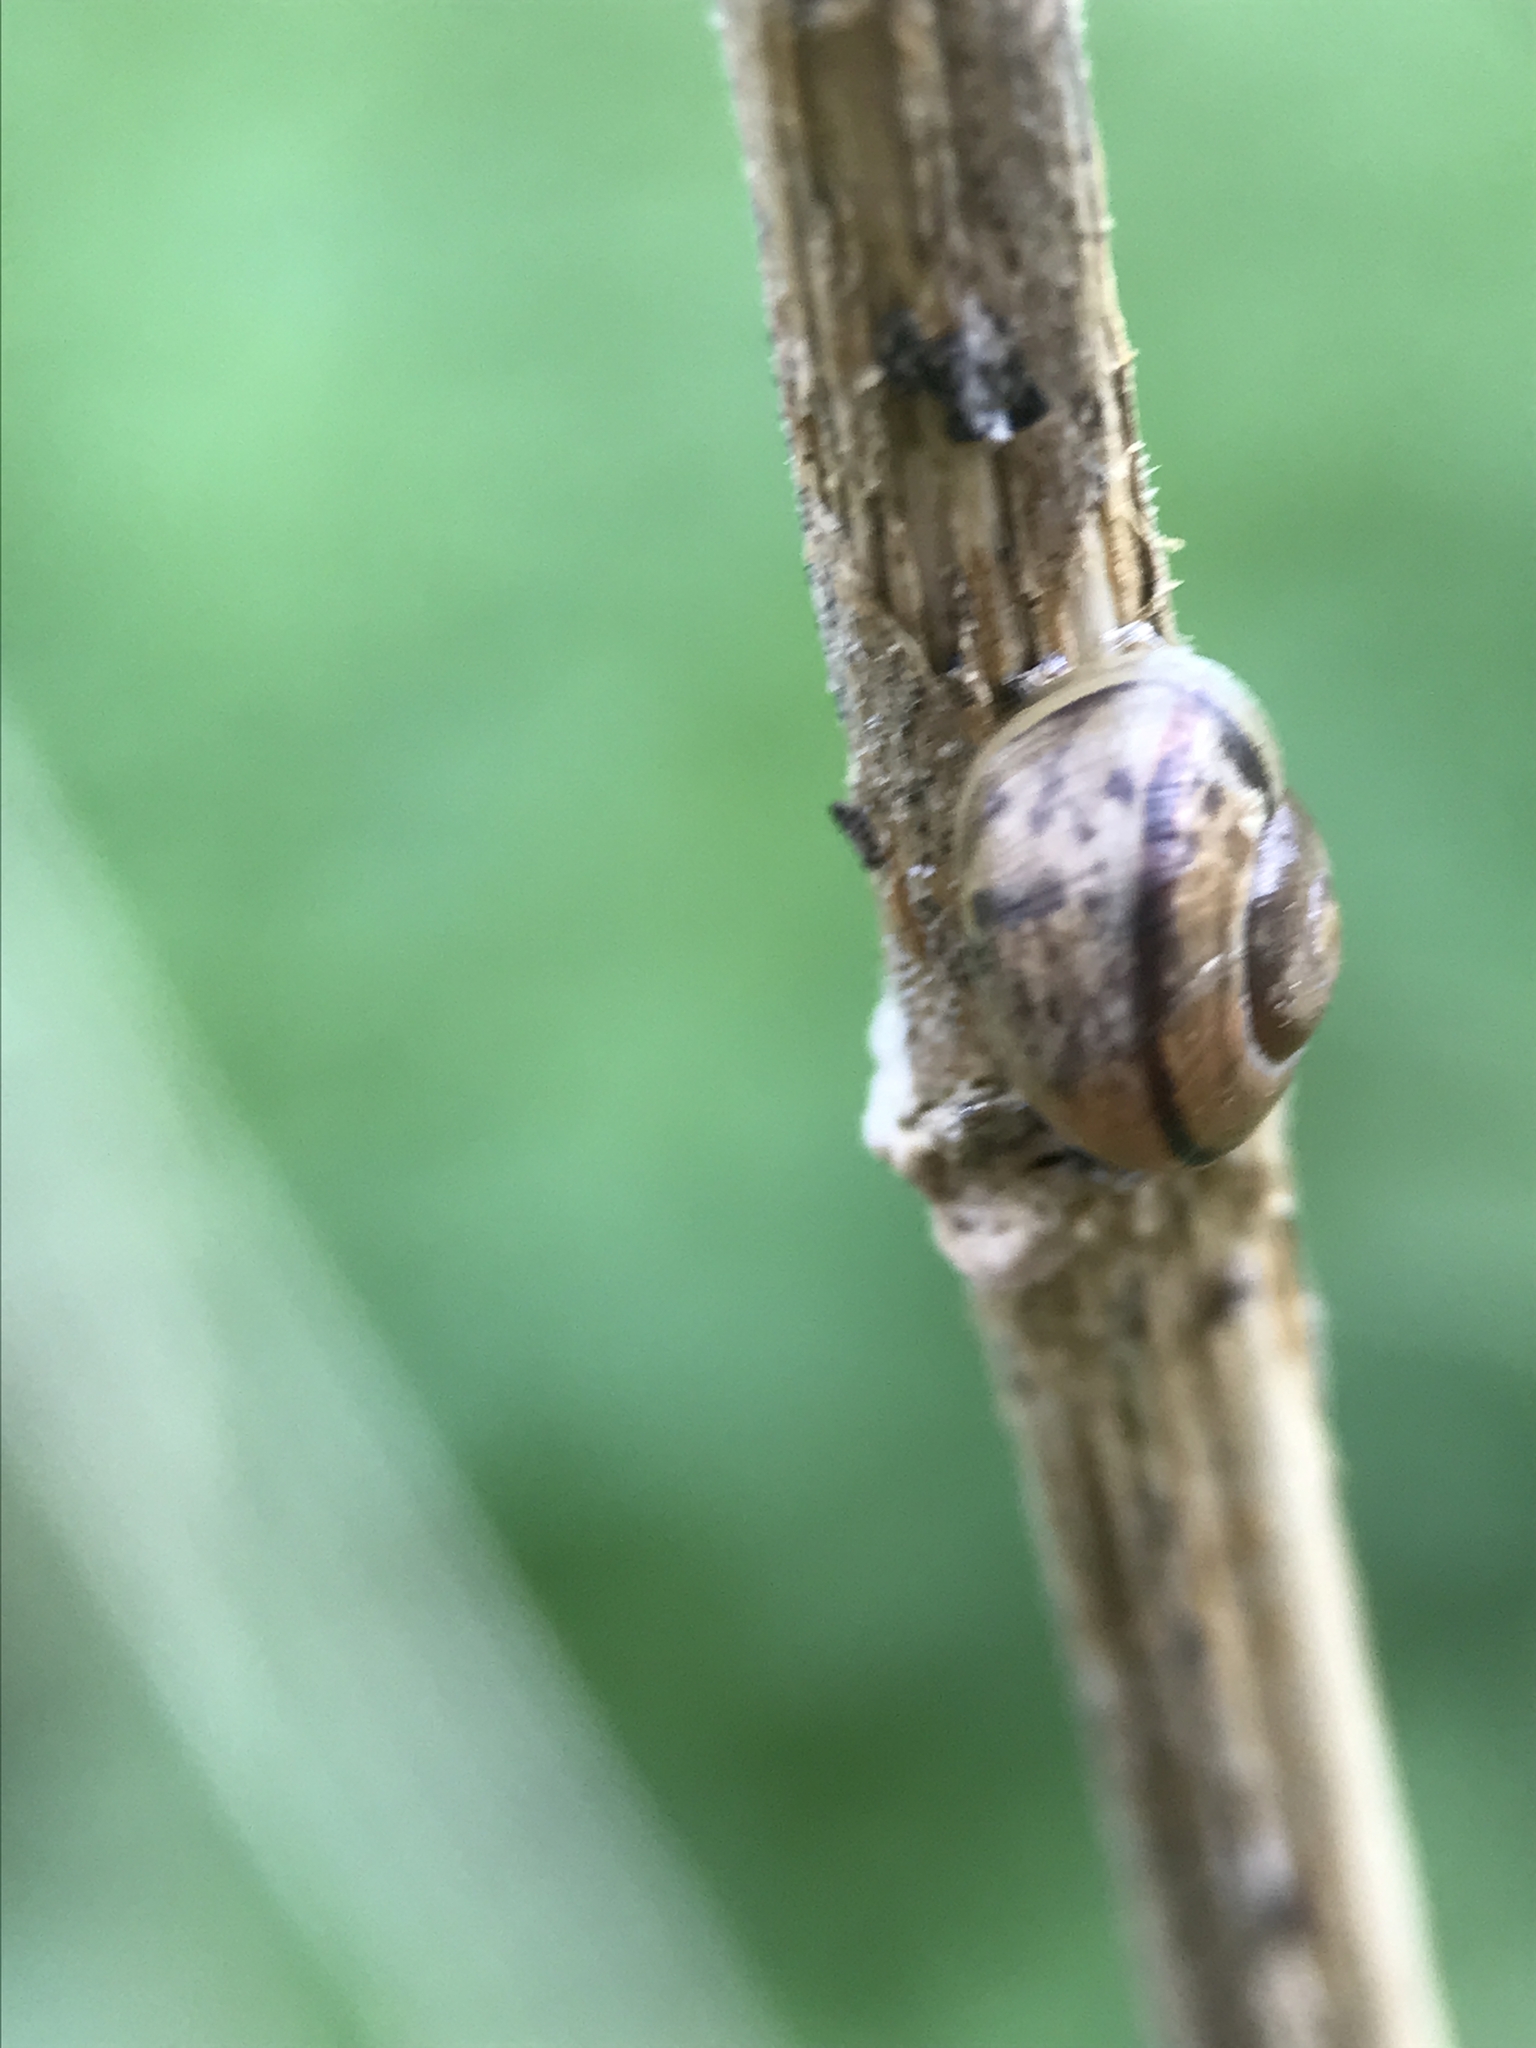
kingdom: Animalia
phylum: Mollusca
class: Gastropoda
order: Stylommatophora
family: Helicidae
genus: Arianta
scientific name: Arianta arbustorum
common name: Copse snail
